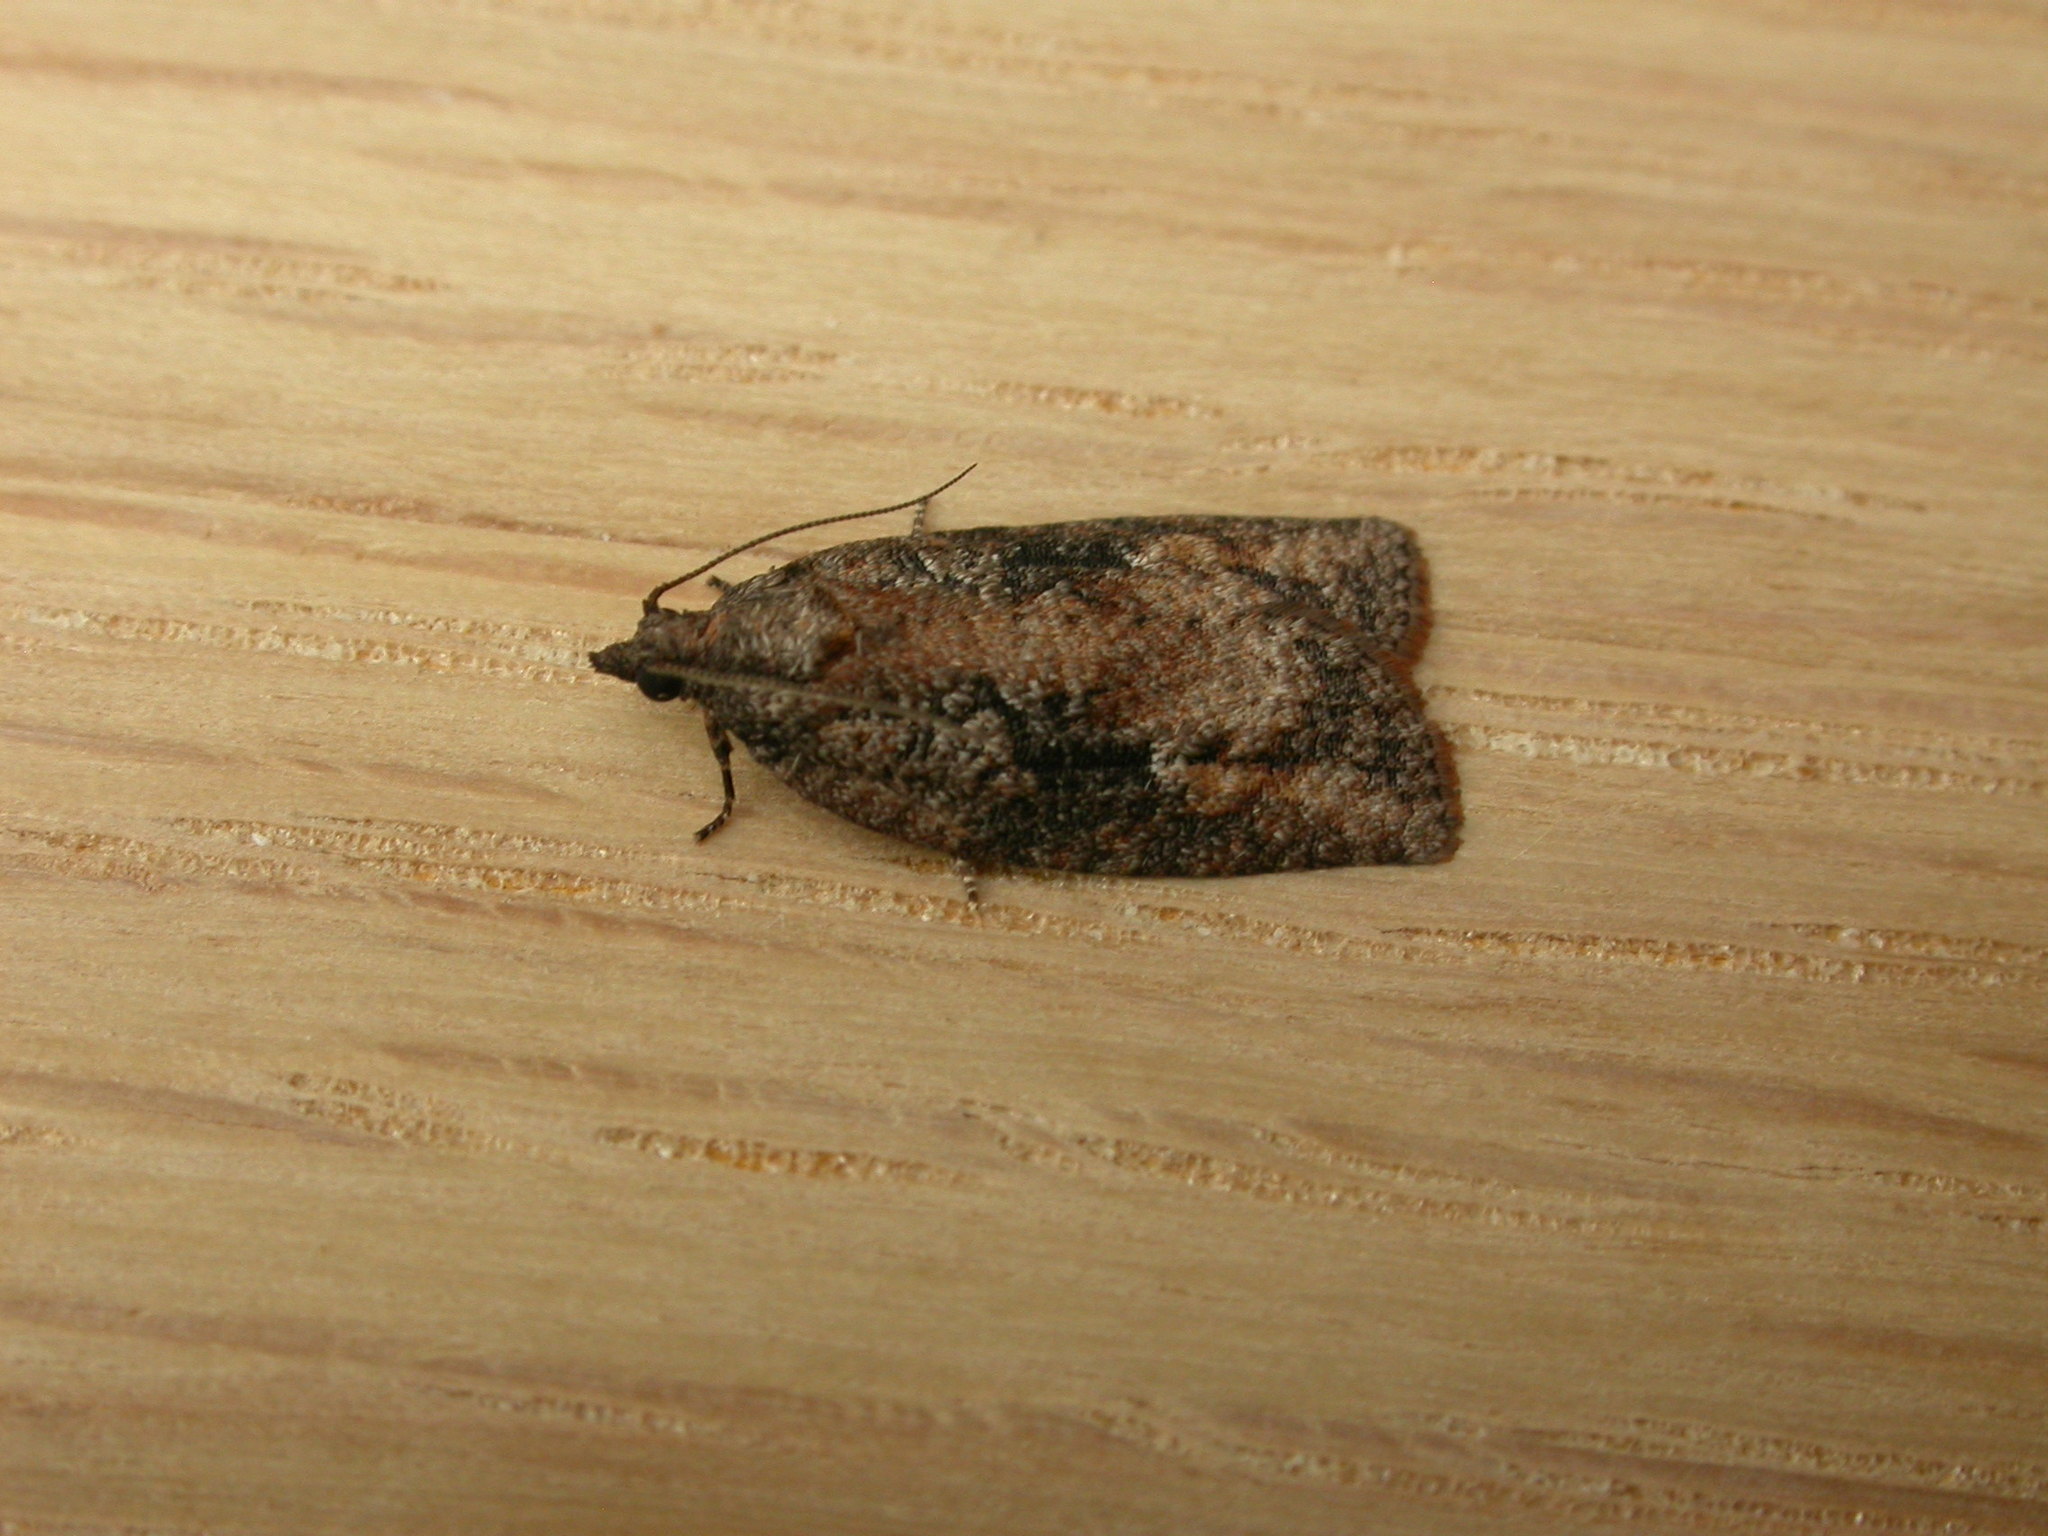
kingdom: Animalia
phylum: Arthropoda
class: Insecta
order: Lepidoptera
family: Tortricidae
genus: Acropolitis
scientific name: Acropolitis excelsa
